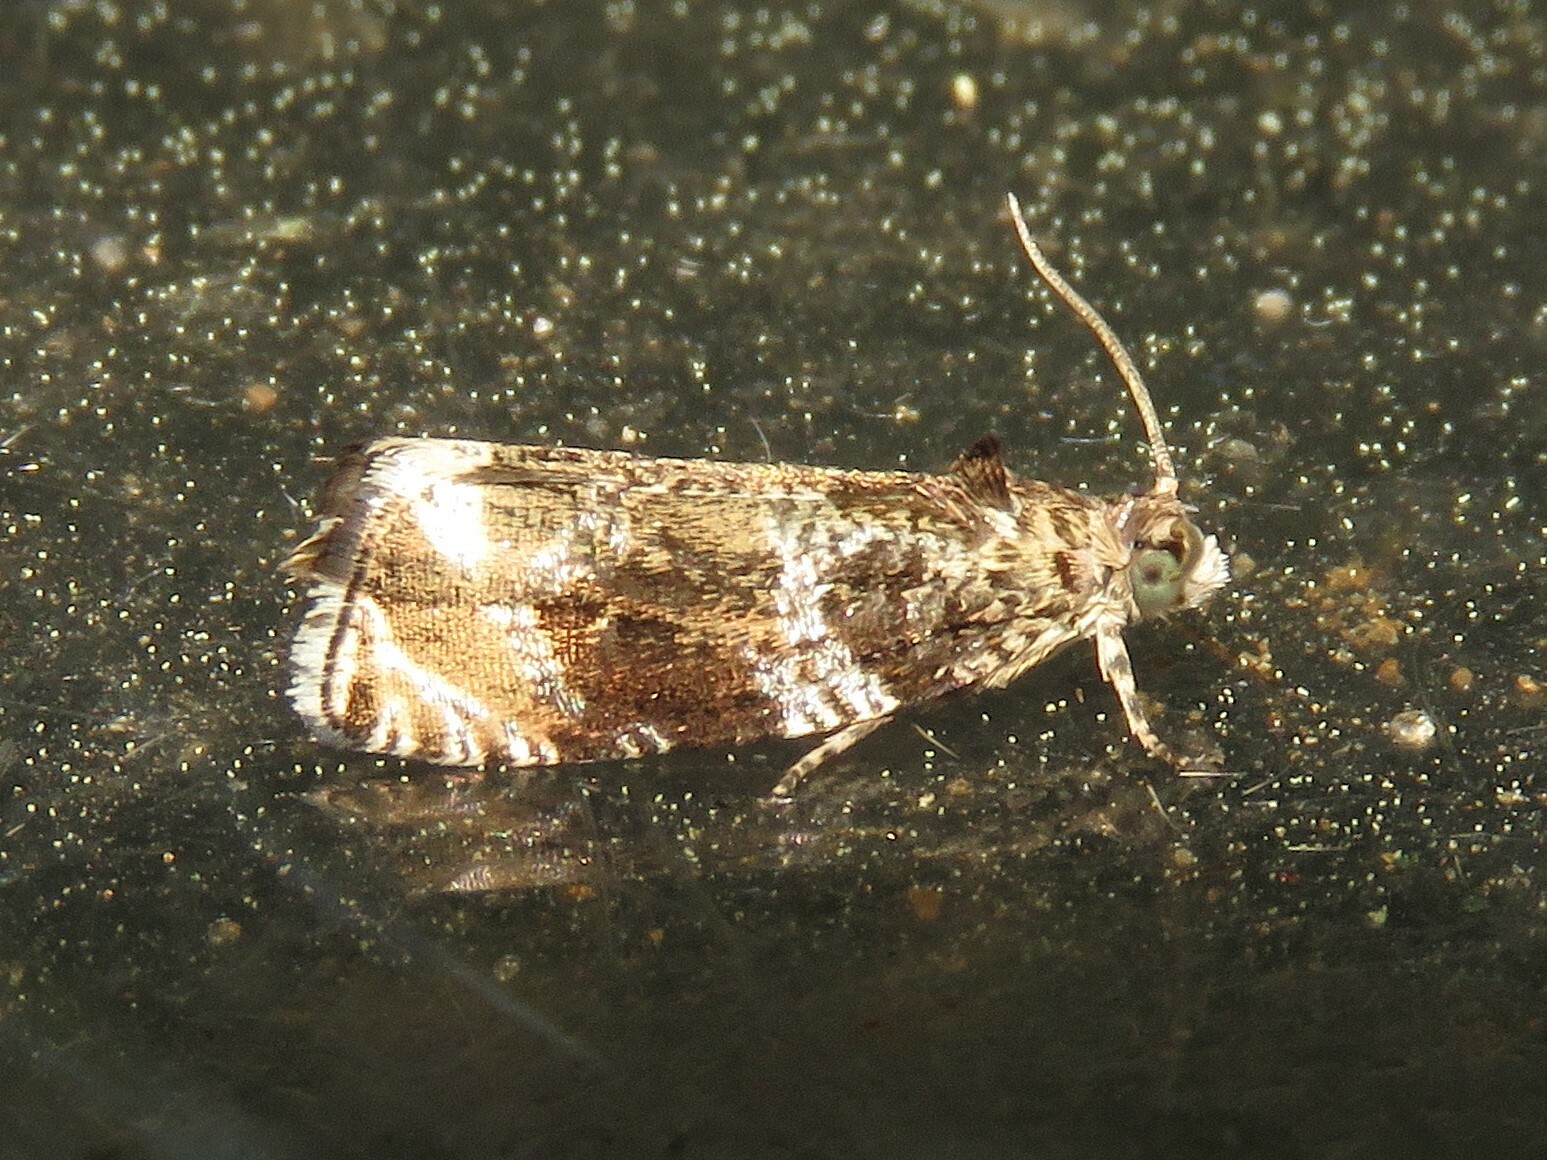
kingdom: Animalia
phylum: Arthropoda
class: Insecta
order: Lepidoptera
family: Tortricidae
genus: Olethreutes
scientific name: Olethreutes appendiceum
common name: Serviceberry leafroller
